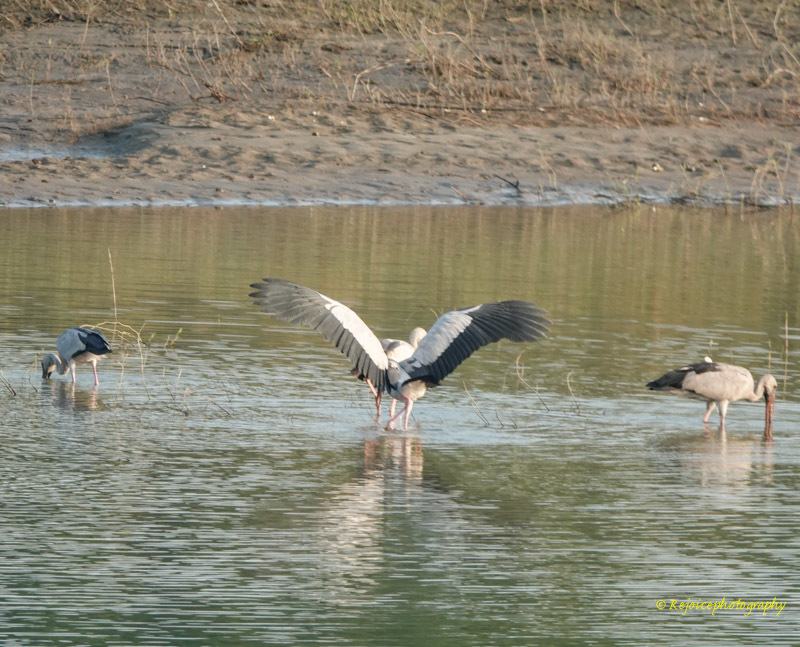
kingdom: Animalia
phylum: Chordata
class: Aves
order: Ciconiiformes
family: Ciconiidae
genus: Anastomus
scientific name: Anastomus oscitans
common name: Asian openbill
